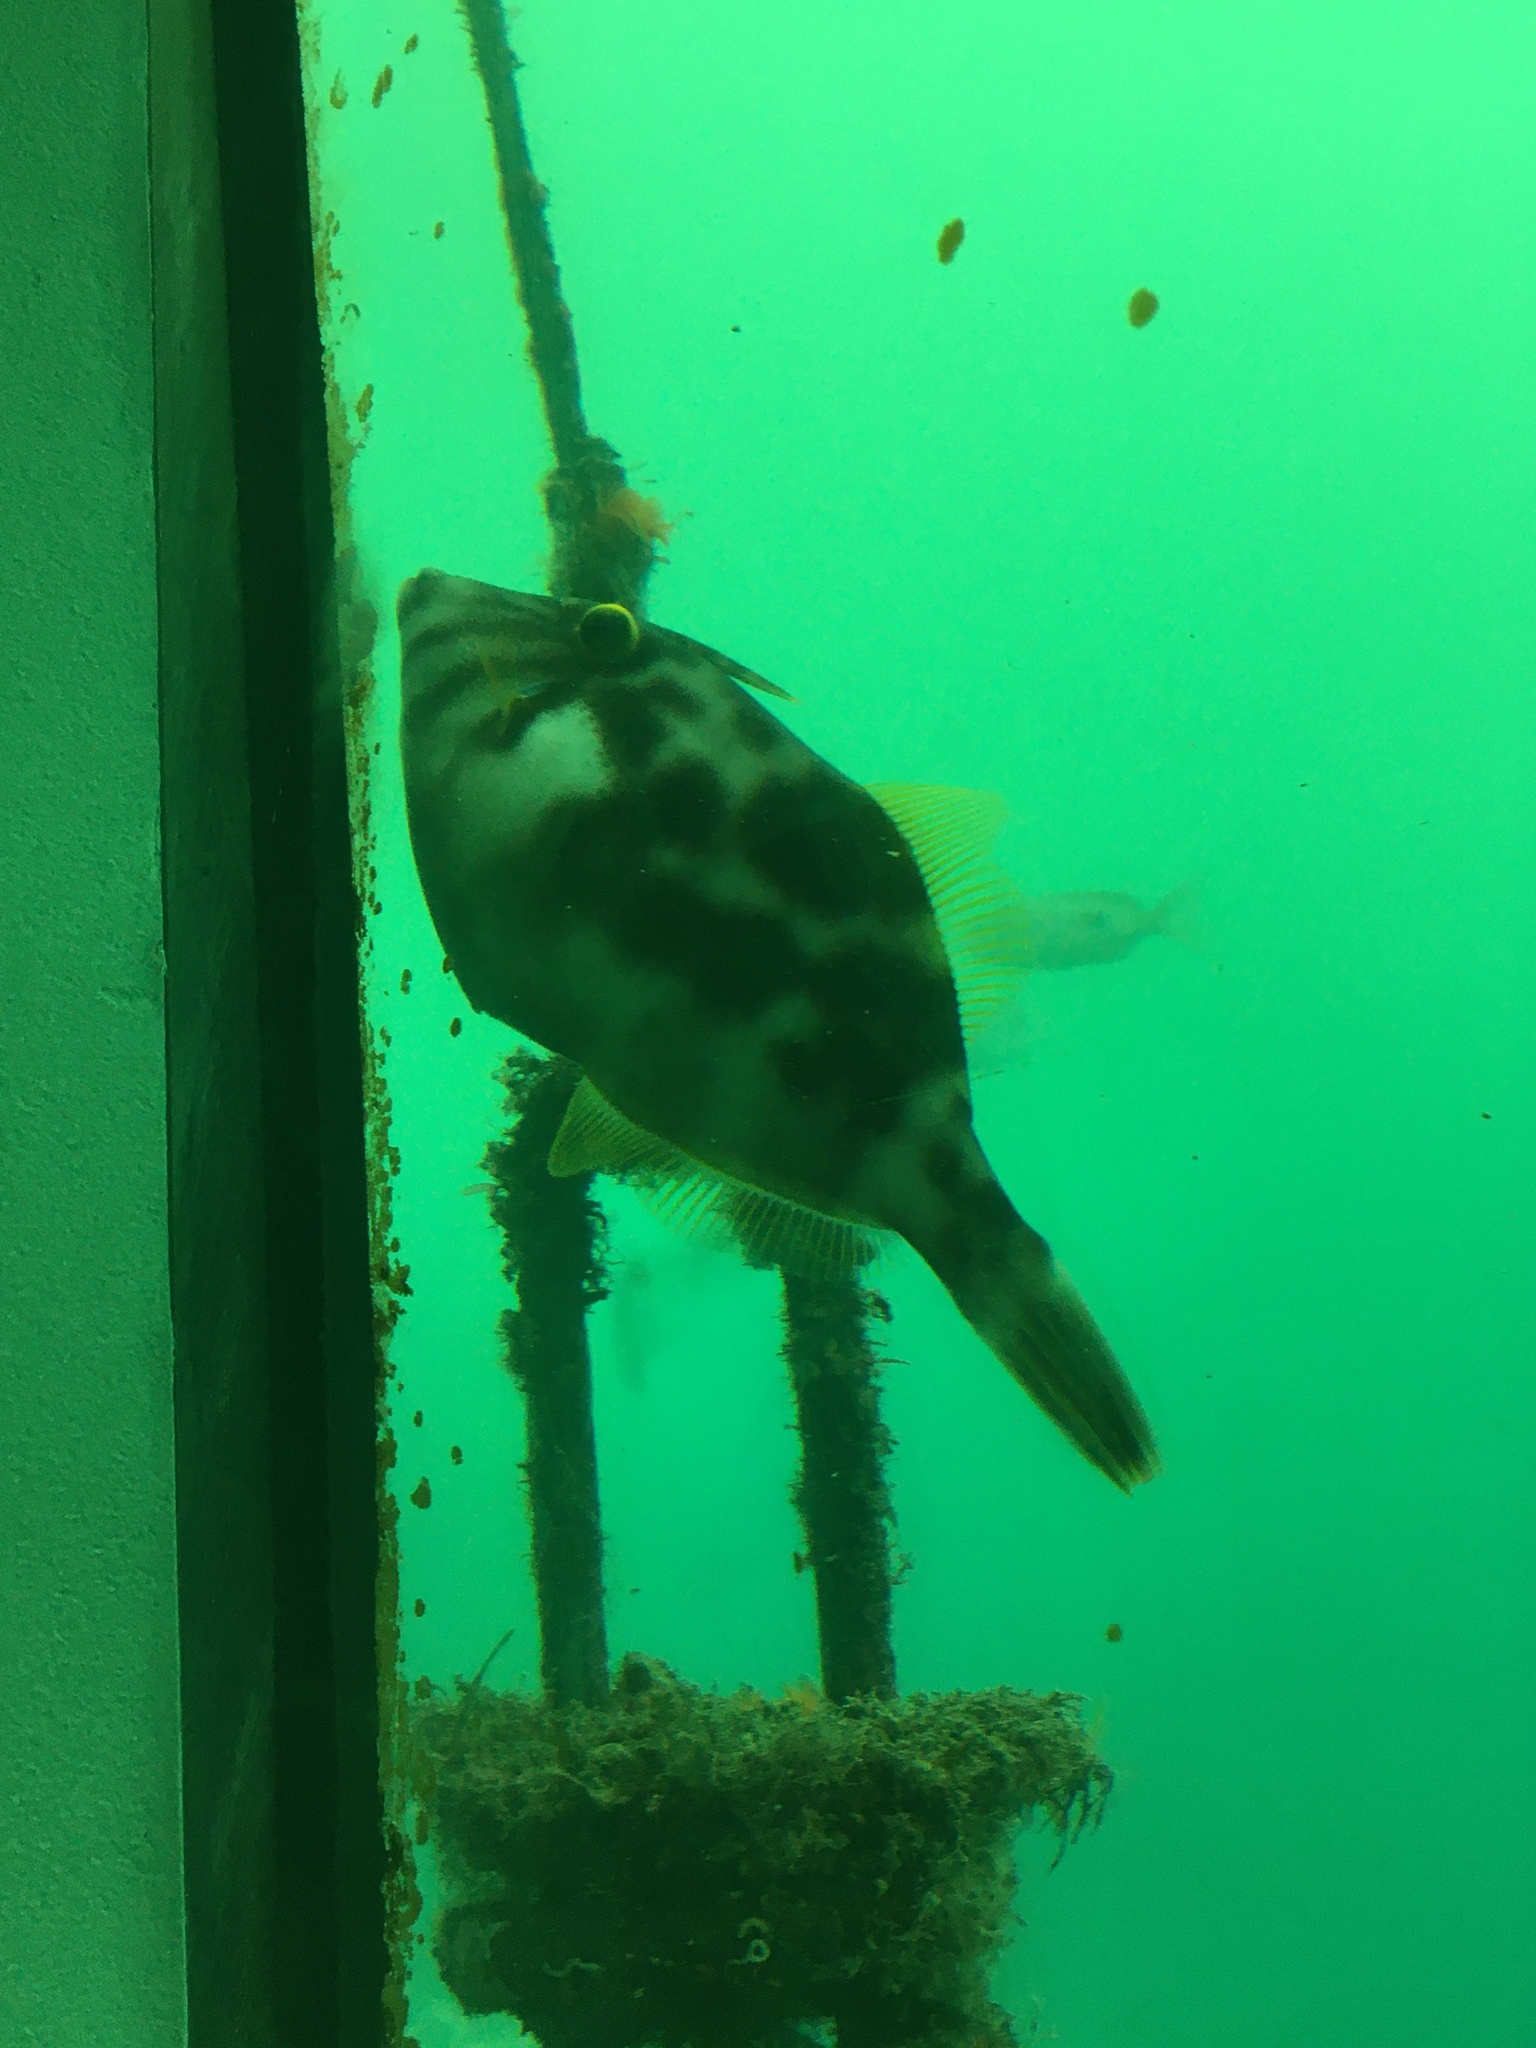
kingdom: Animalia
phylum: Chordata
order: Tetraodontiformes
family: Monacanthidae
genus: Meuschenia
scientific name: Meuschenia scaber
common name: Cosmopolitan leatherjacket
